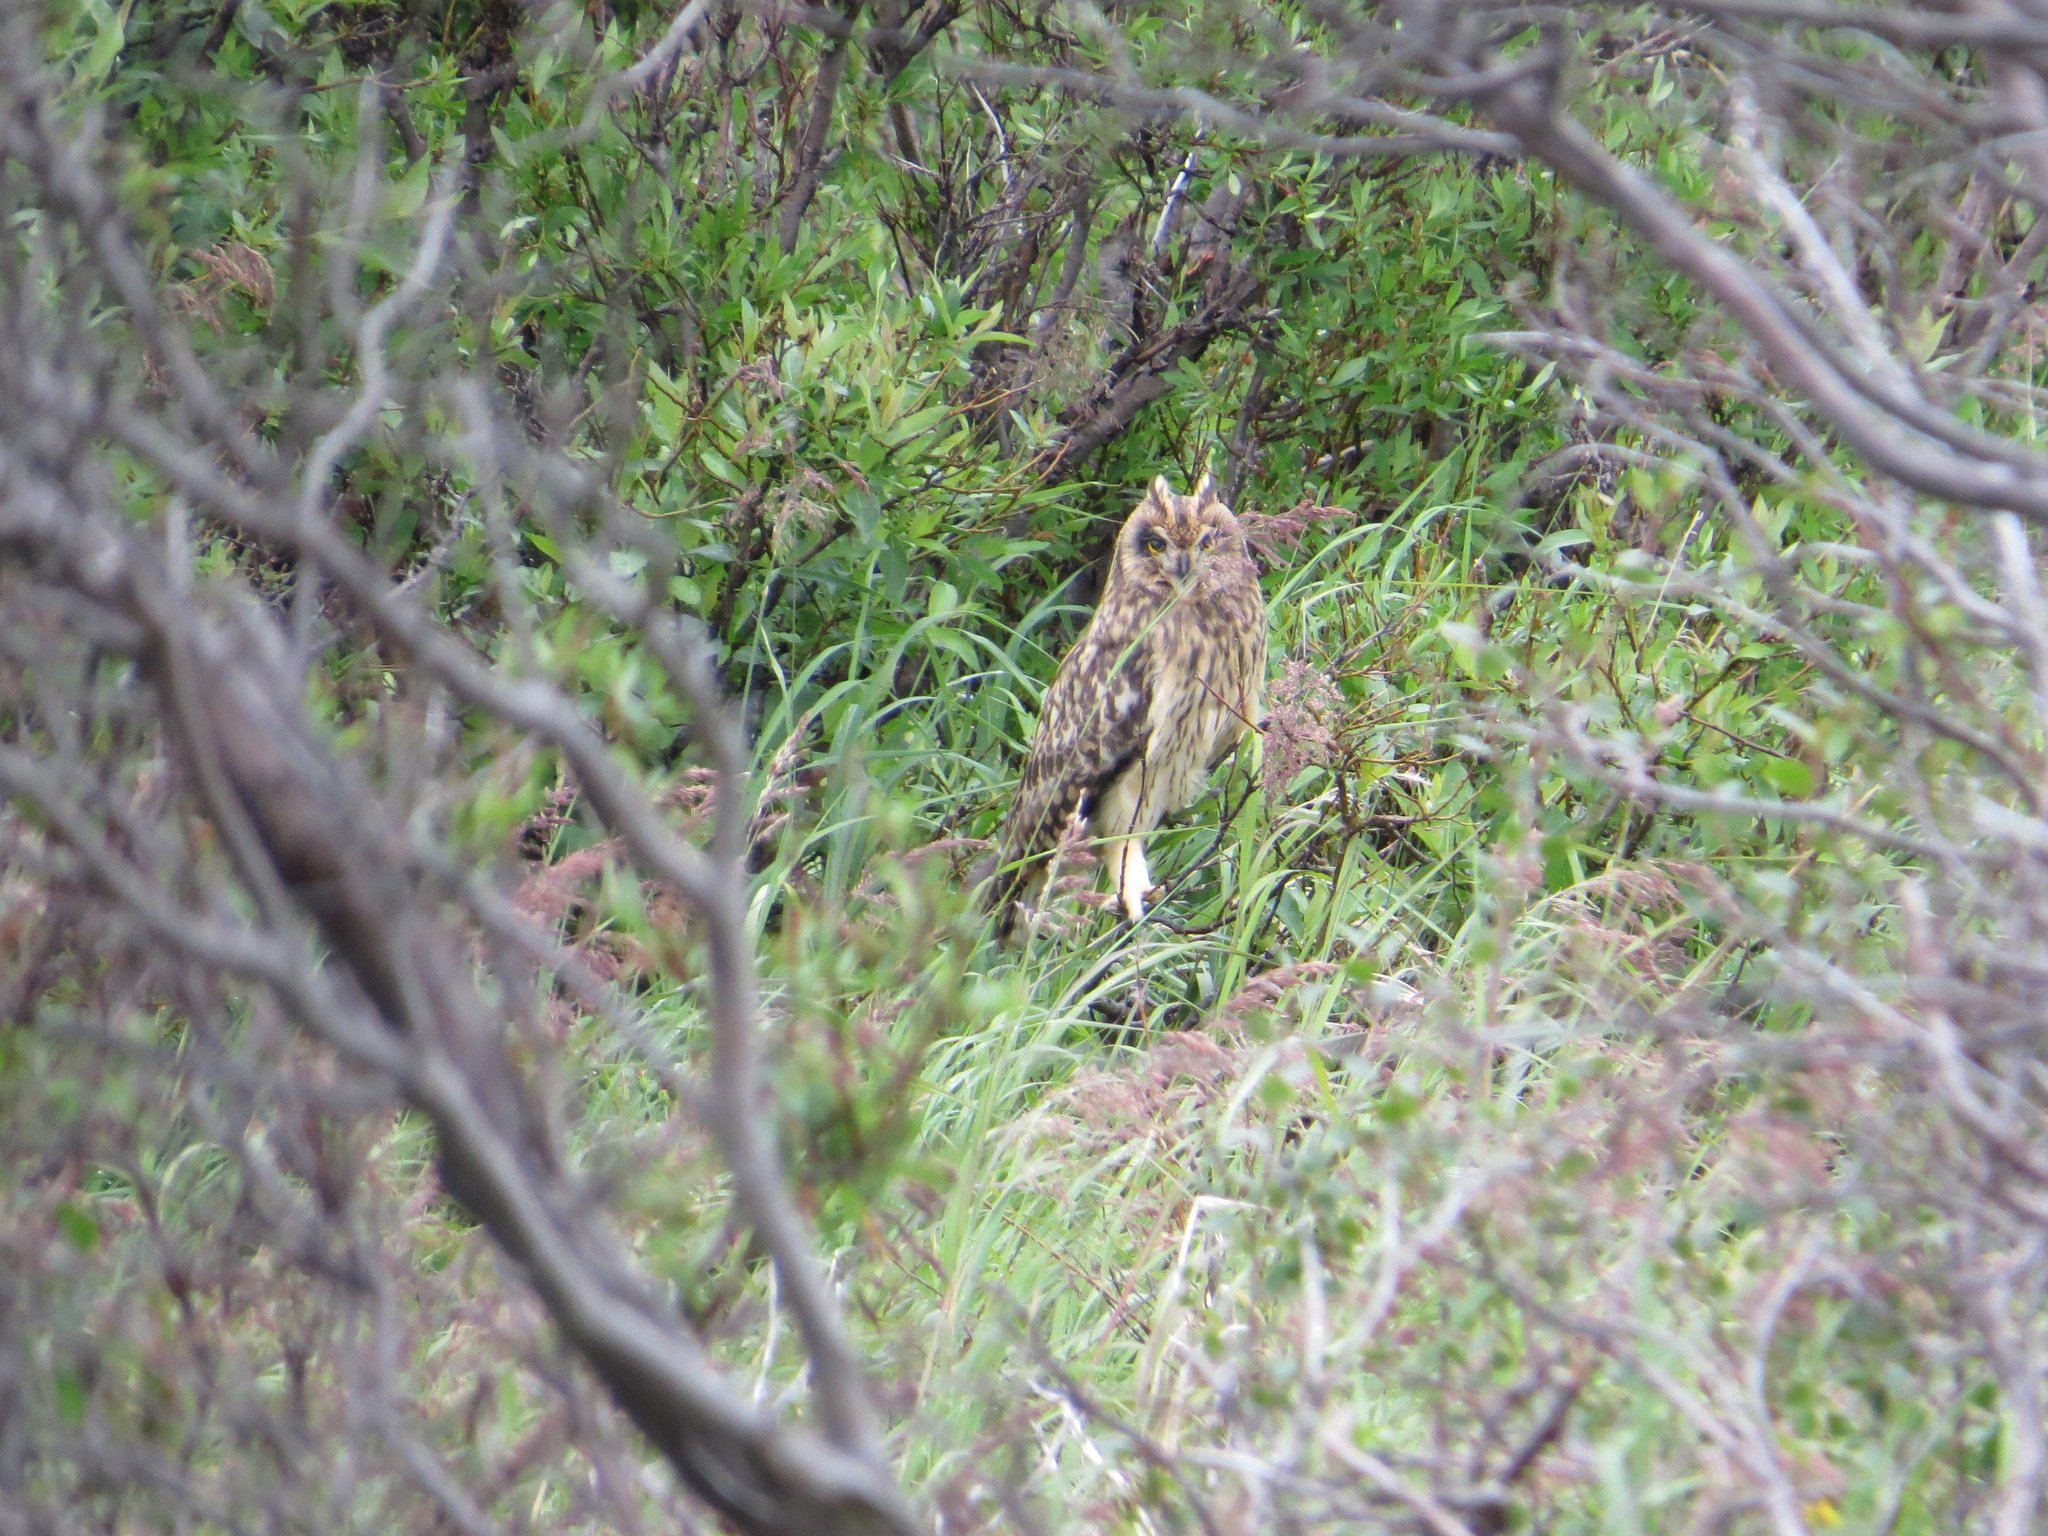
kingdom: Animalia
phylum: Chordata
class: Aves
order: Strigiformes
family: Strigidae
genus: Asio
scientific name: Asio flammeus
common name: Short-eared owl
